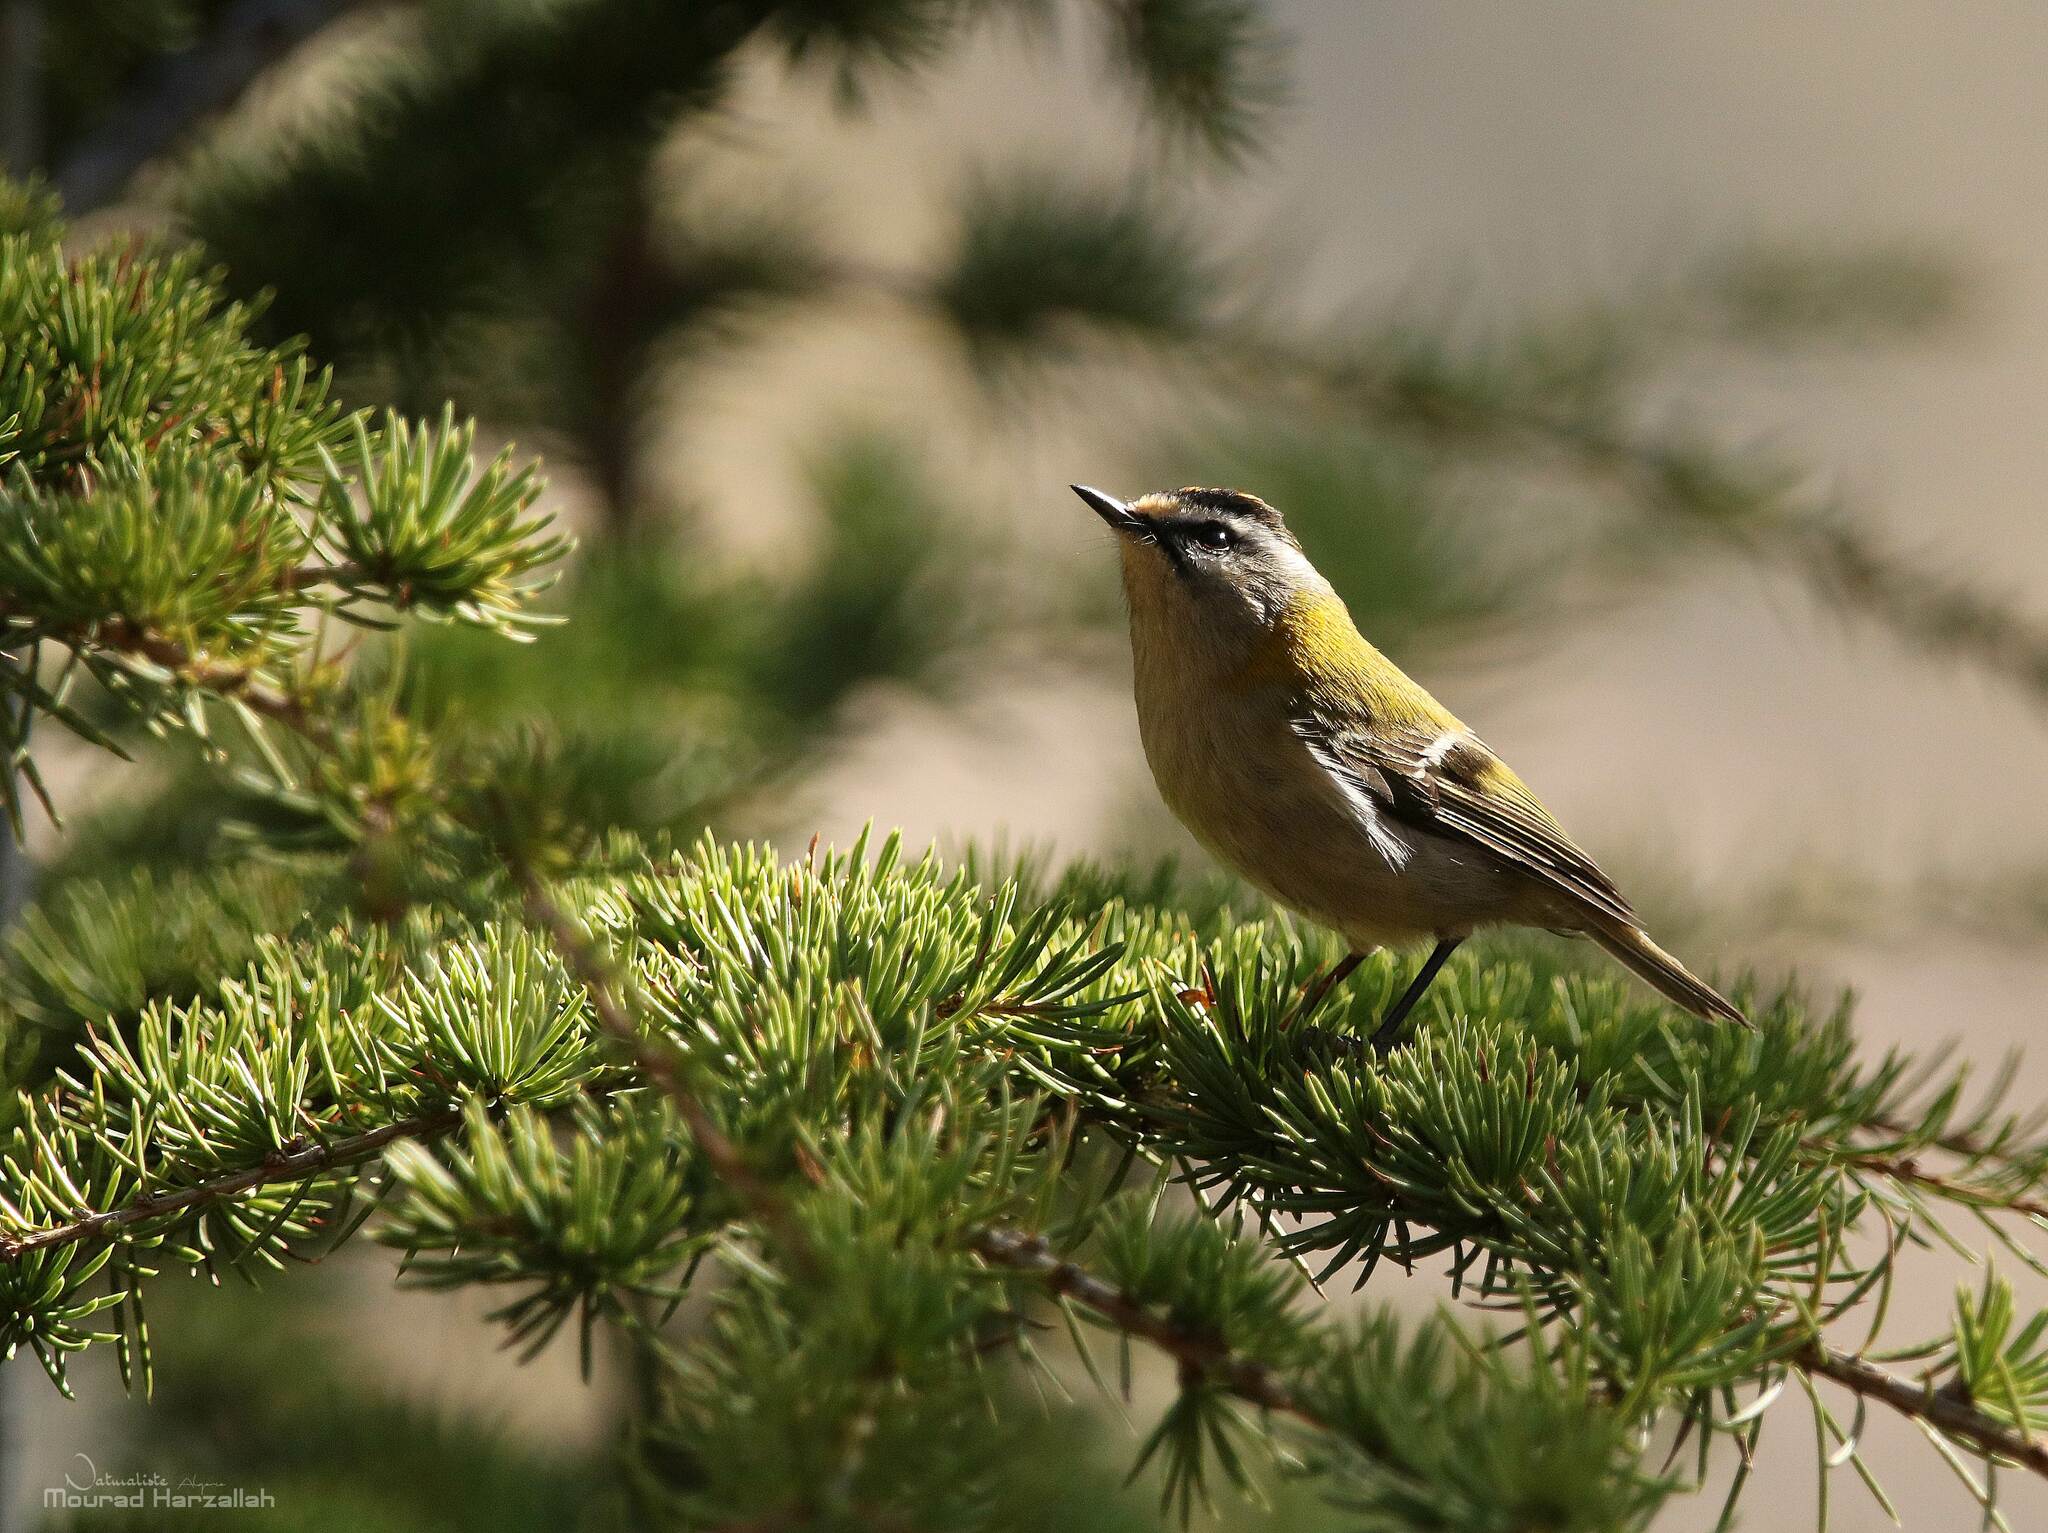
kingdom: Animalia
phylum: Chordata
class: Aves
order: Passeriformes
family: Regulidae
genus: Regulus
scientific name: Regulus ignicapilla
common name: Firecrest
